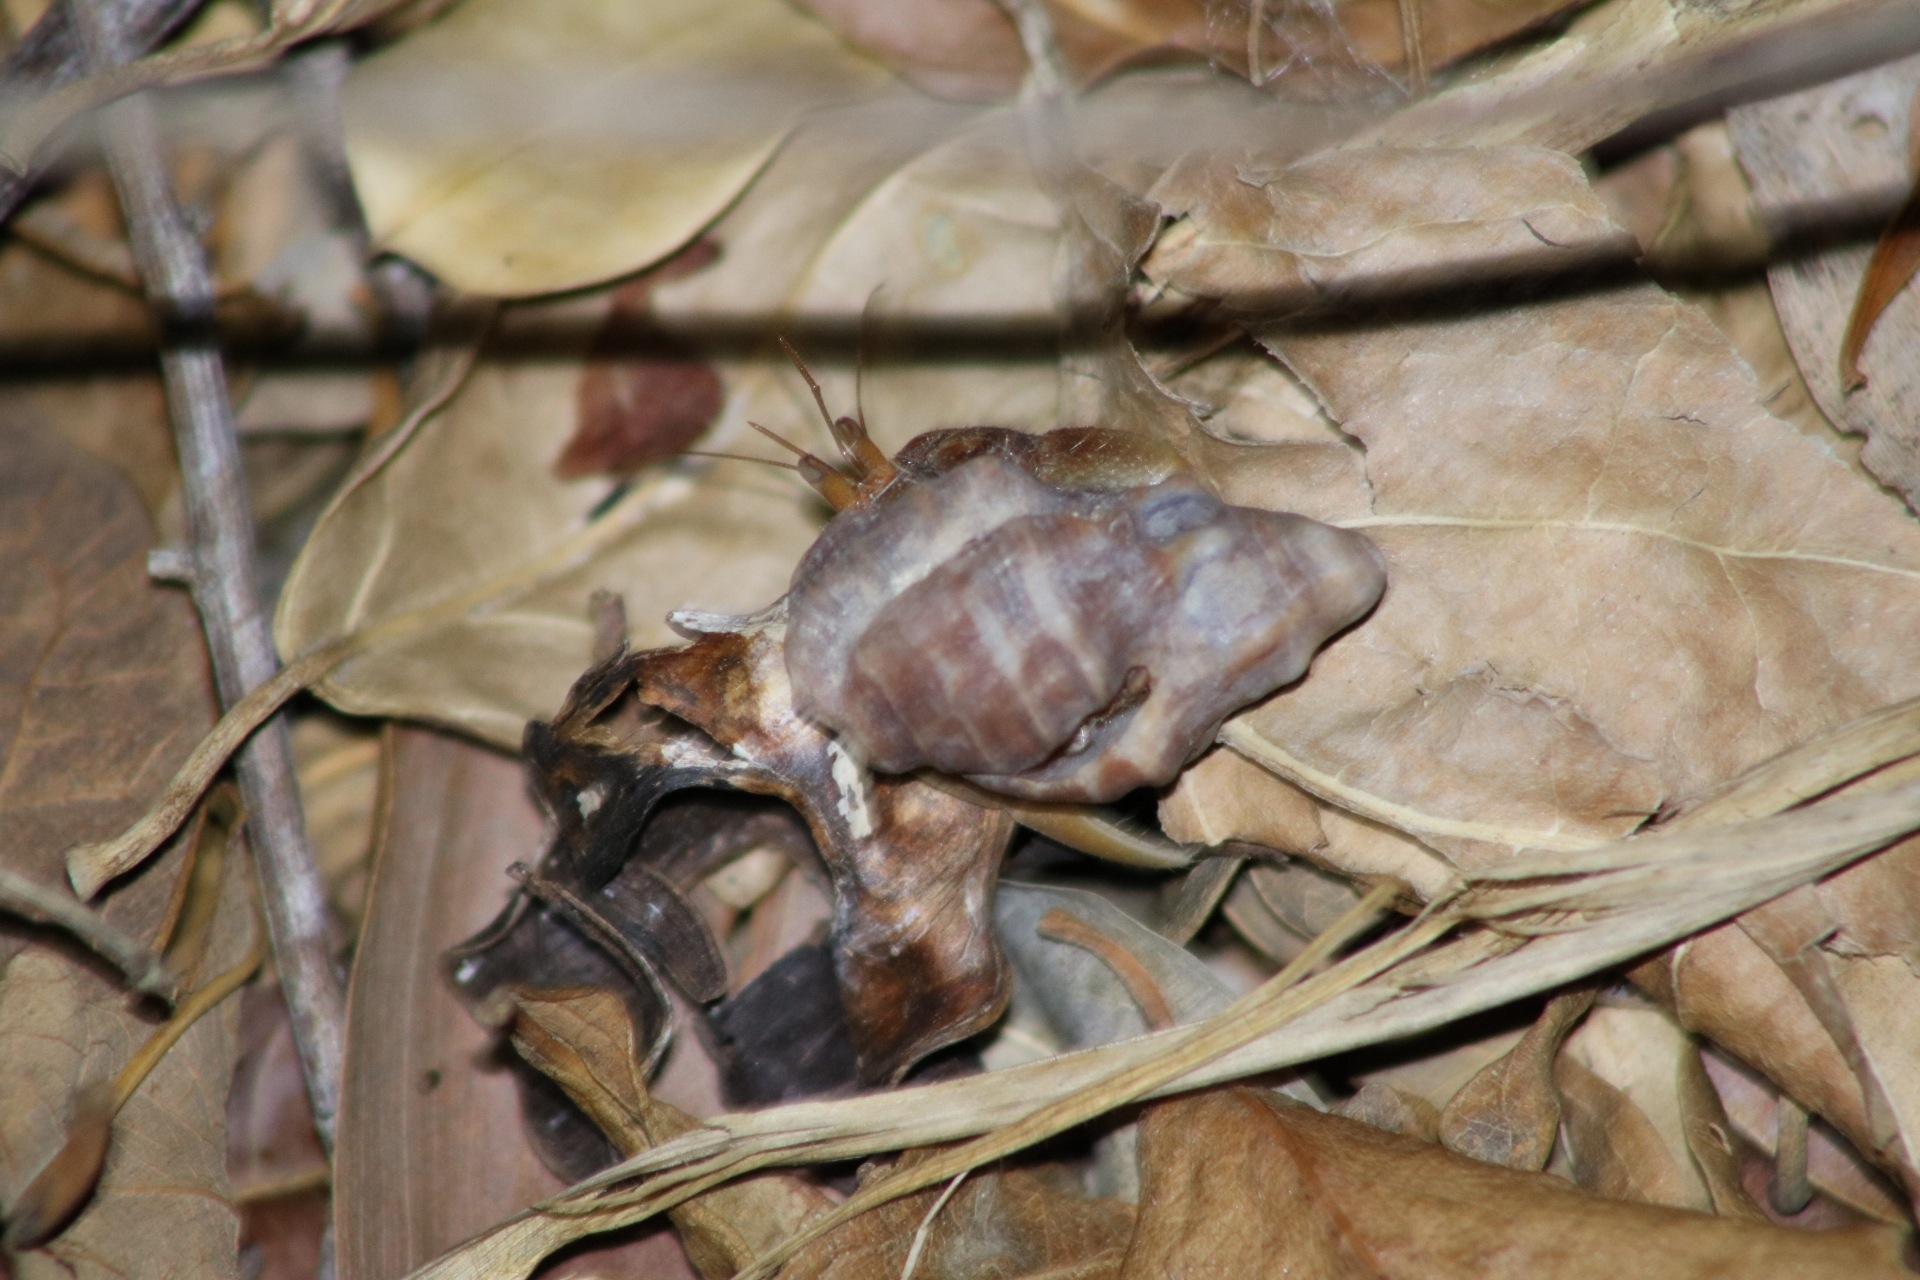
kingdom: Animalia
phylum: Arthropoda
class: Malacostraca
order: Decapoda
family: Coenobitidae
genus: Coenobita
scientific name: Coenobita variabilis
